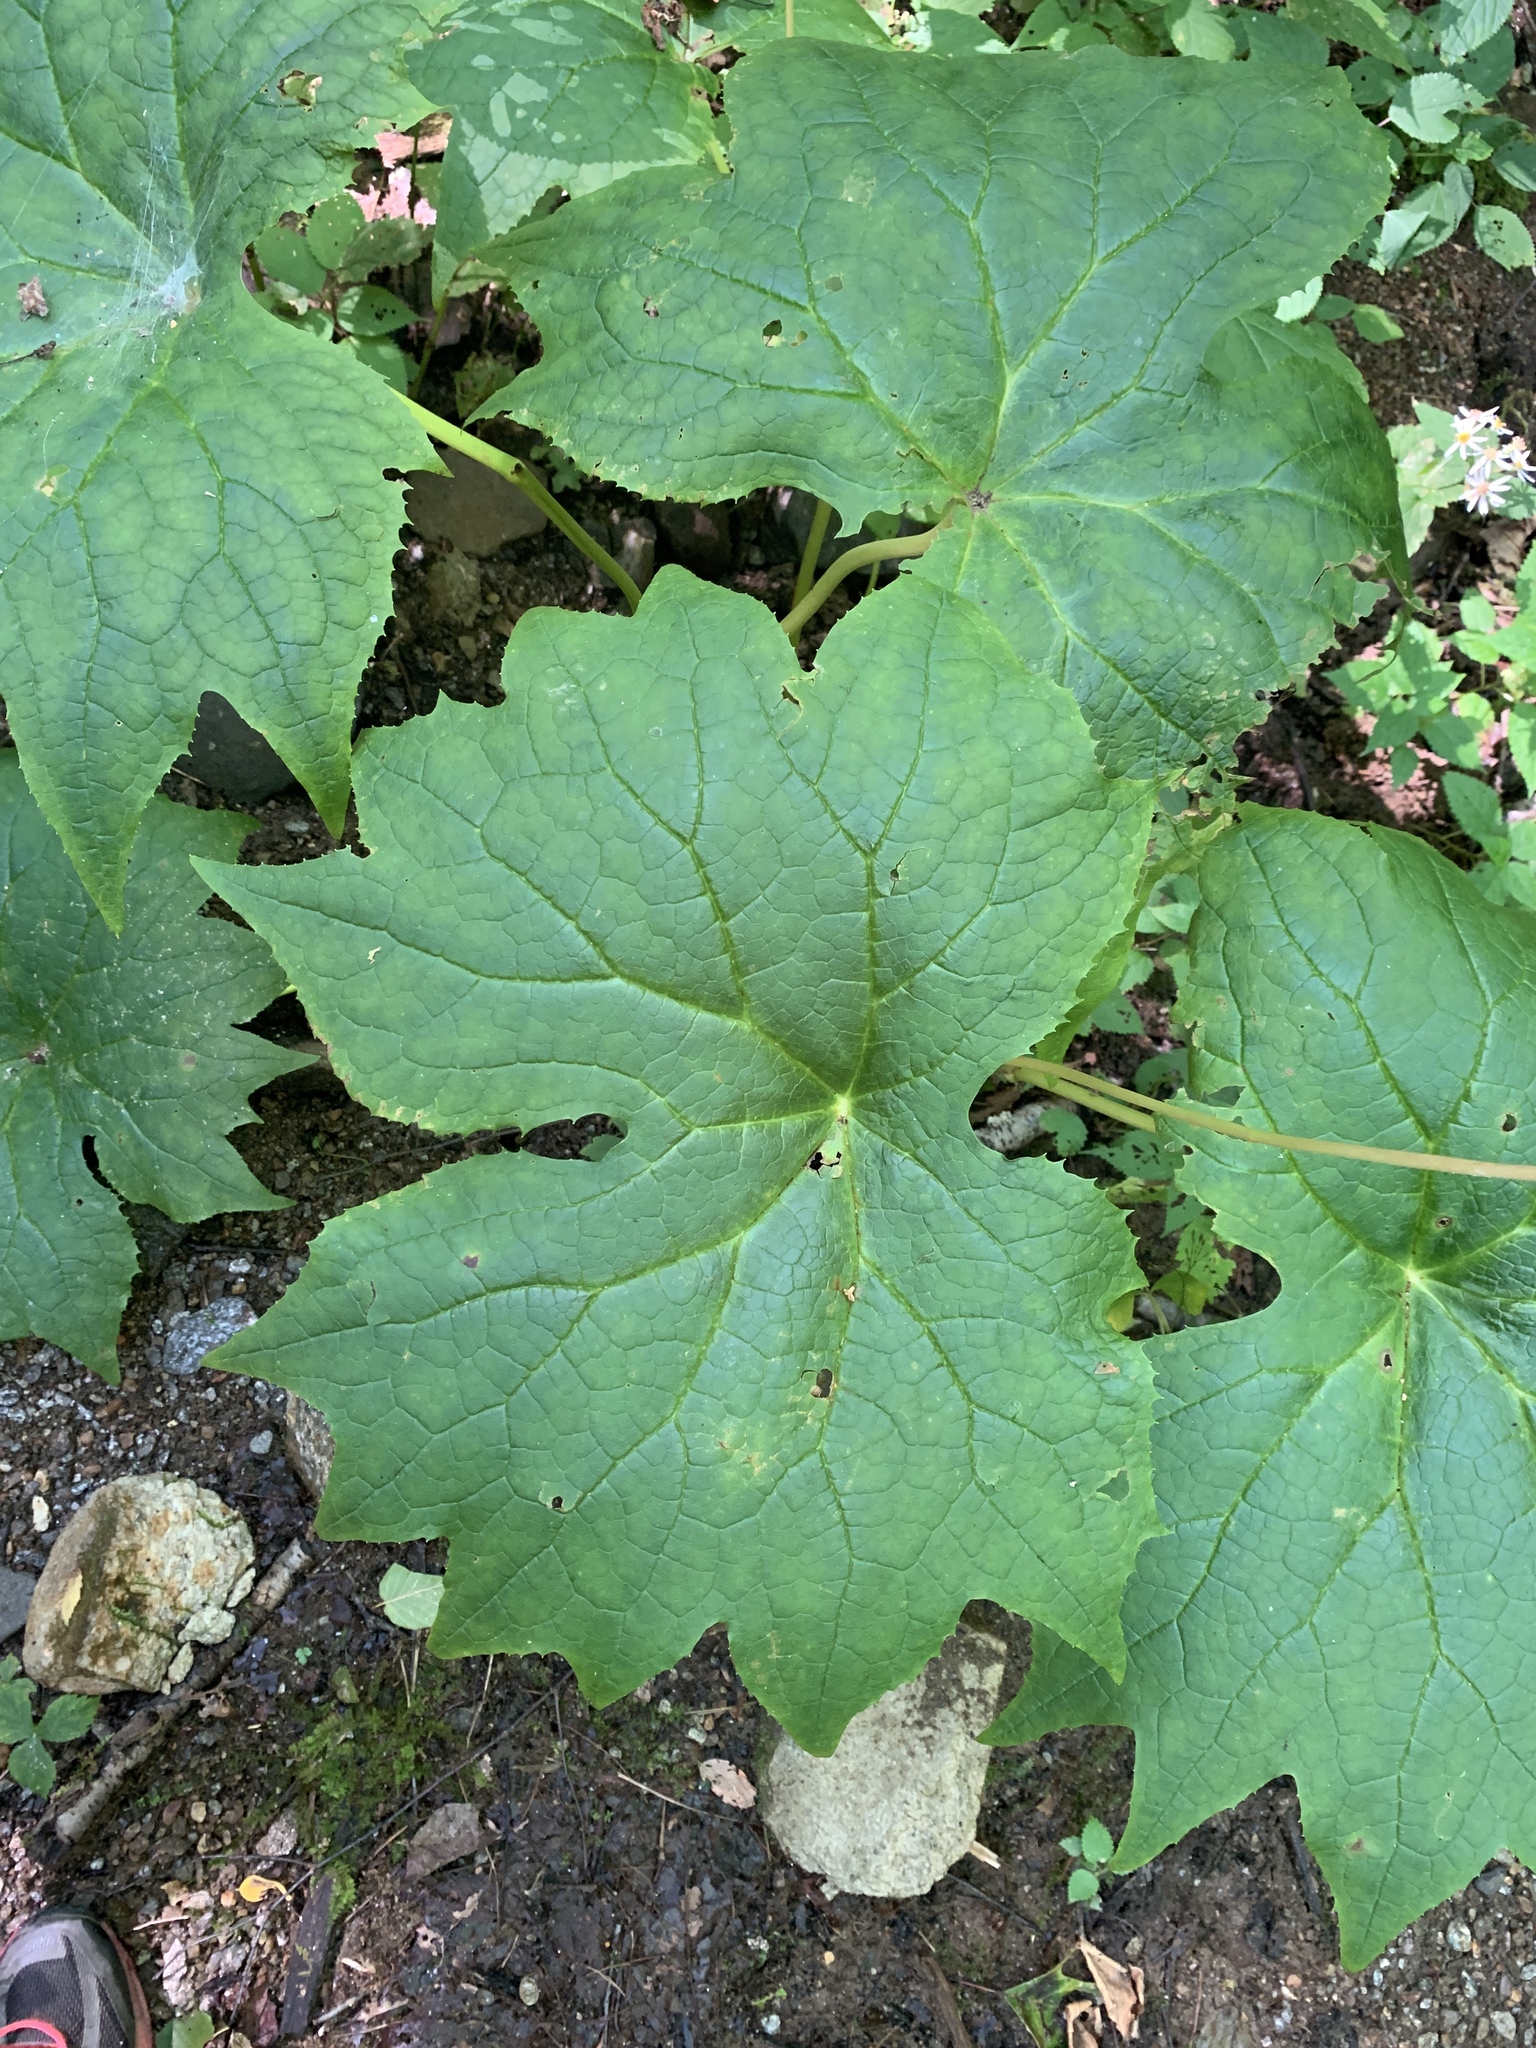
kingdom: Plantae
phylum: Tracheophyta
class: Magnoliopsida
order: Ranunculales
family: Berberidaceae
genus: Diphylleia
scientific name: Diphylleia cymosa
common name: Umbrella-leaf
